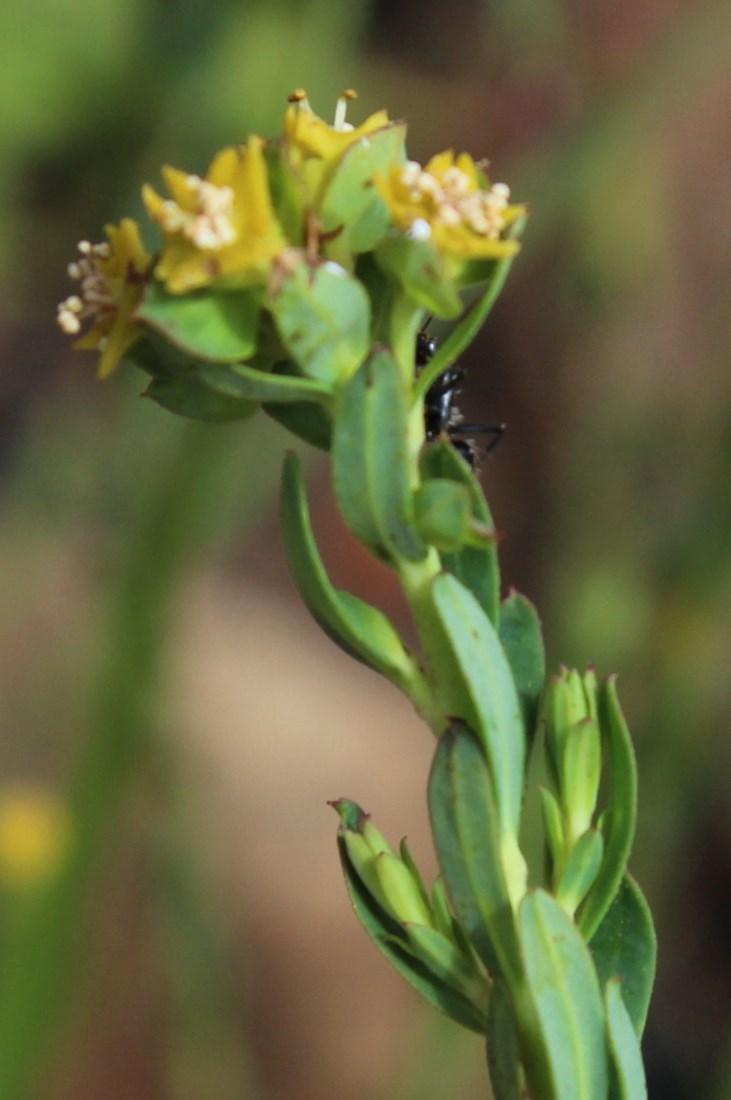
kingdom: Plantae
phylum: Tracheophyta
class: Magnoliopsida
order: Malpighiales
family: Euphorbiaceae
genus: Euphorbia
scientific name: Euphorbia genistoides
